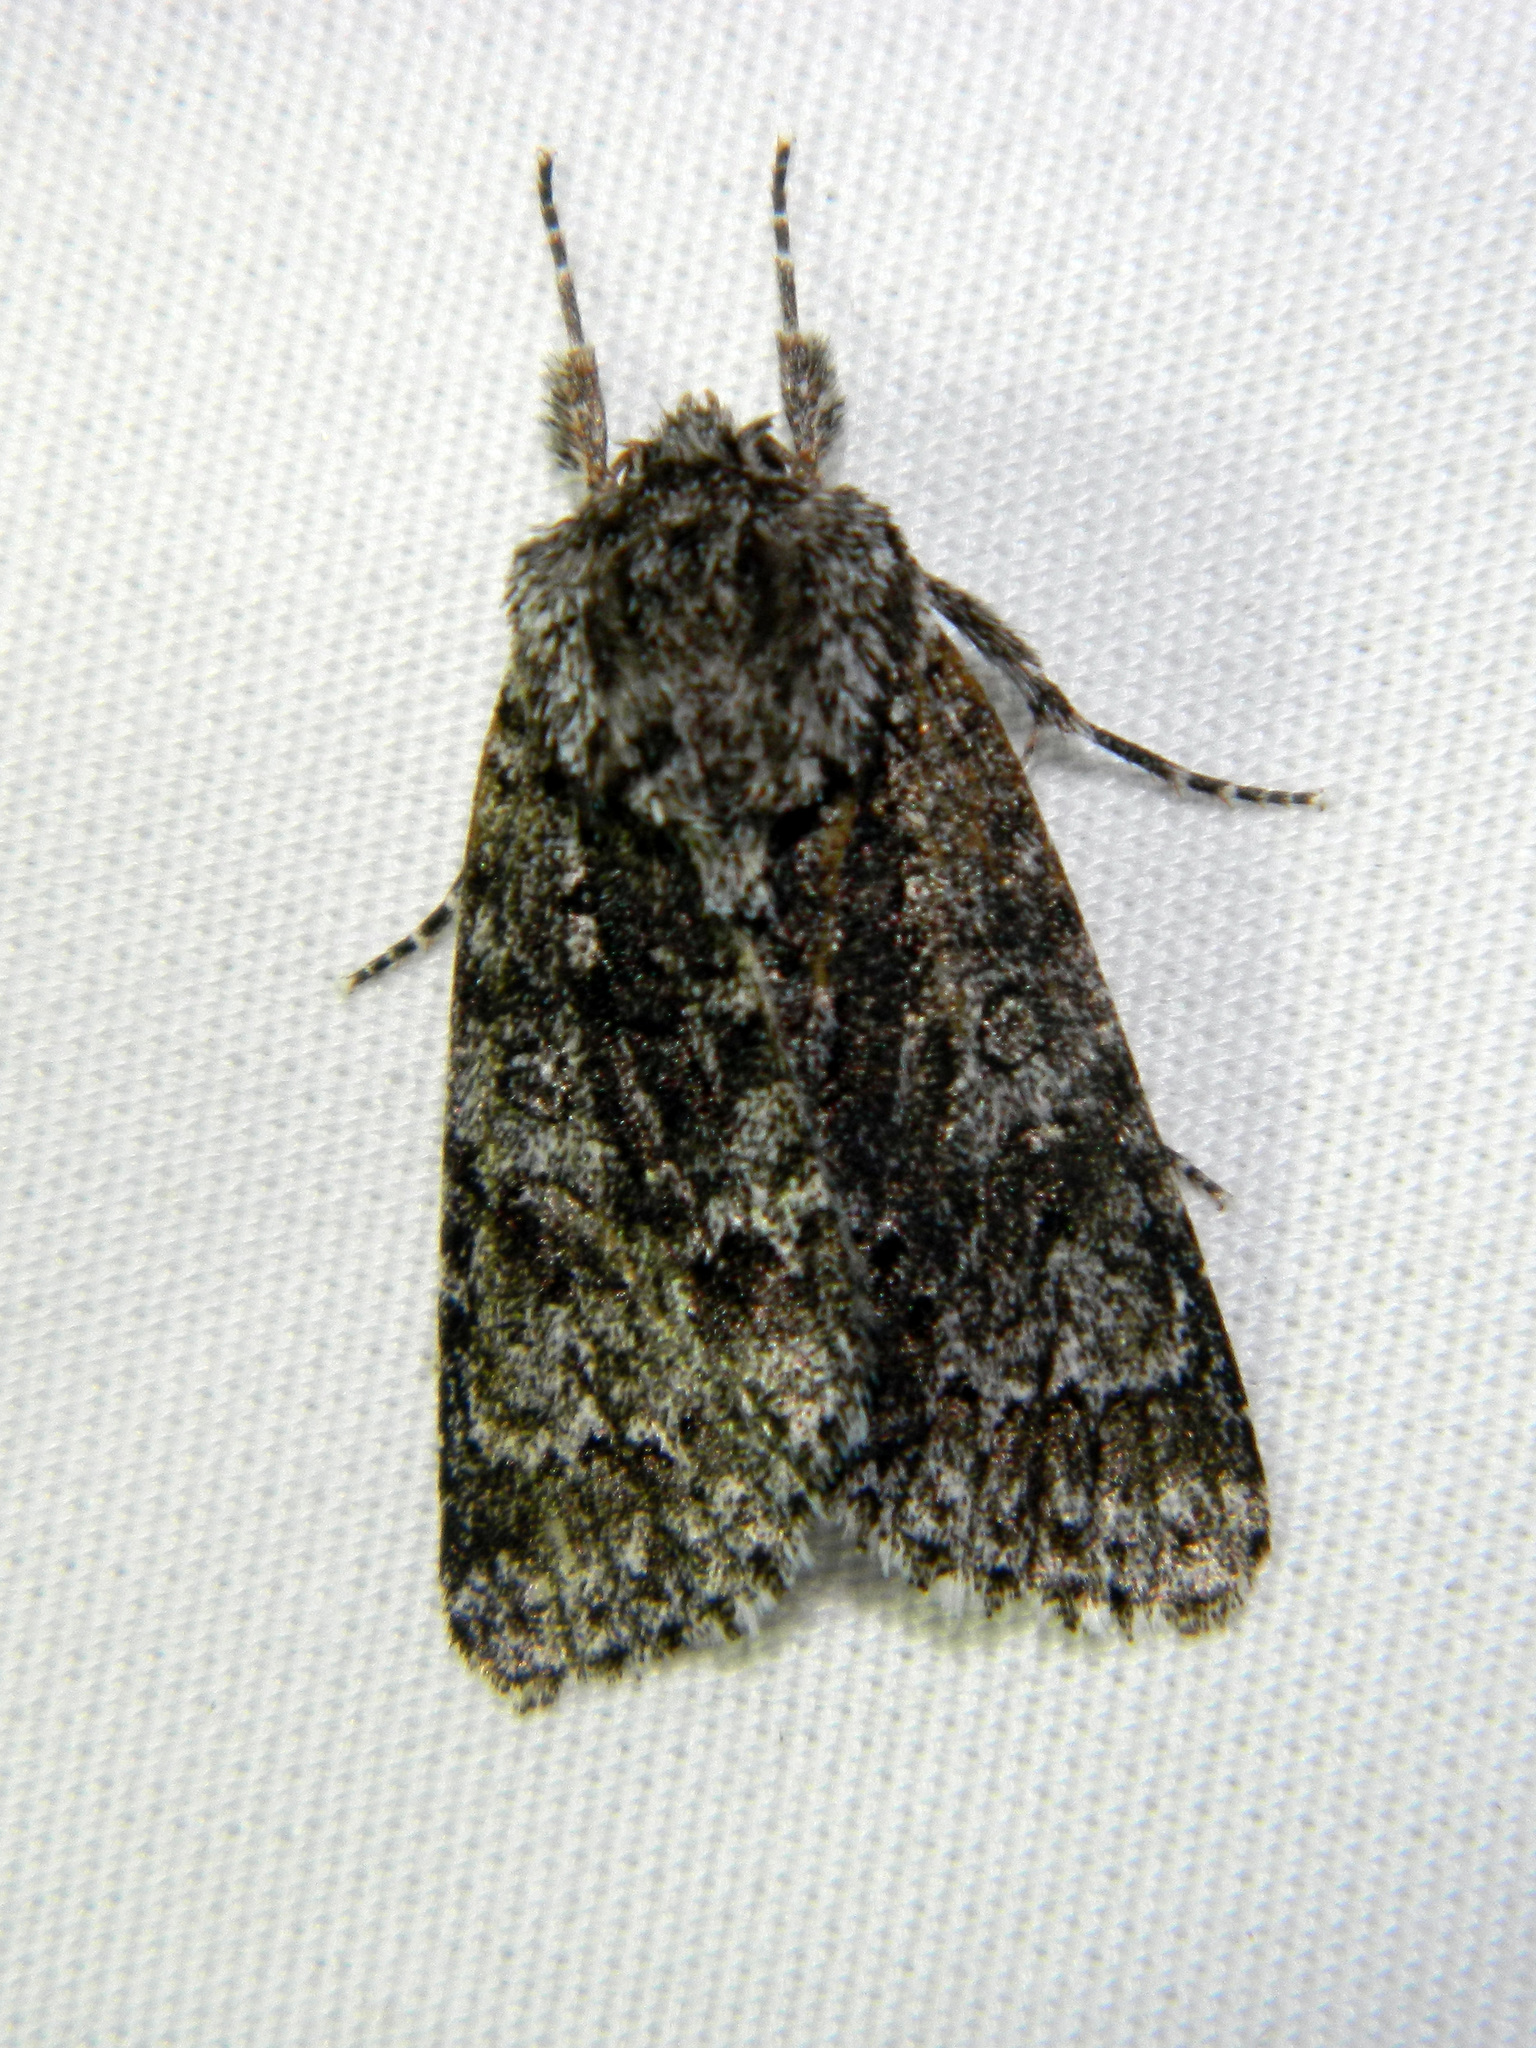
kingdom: Animalia
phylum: Arthropoda
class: Insecta
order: Lepidoptera
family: Noctuidae
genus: Acronicta
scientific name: Acronicta impressa
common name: Impressed dagger
